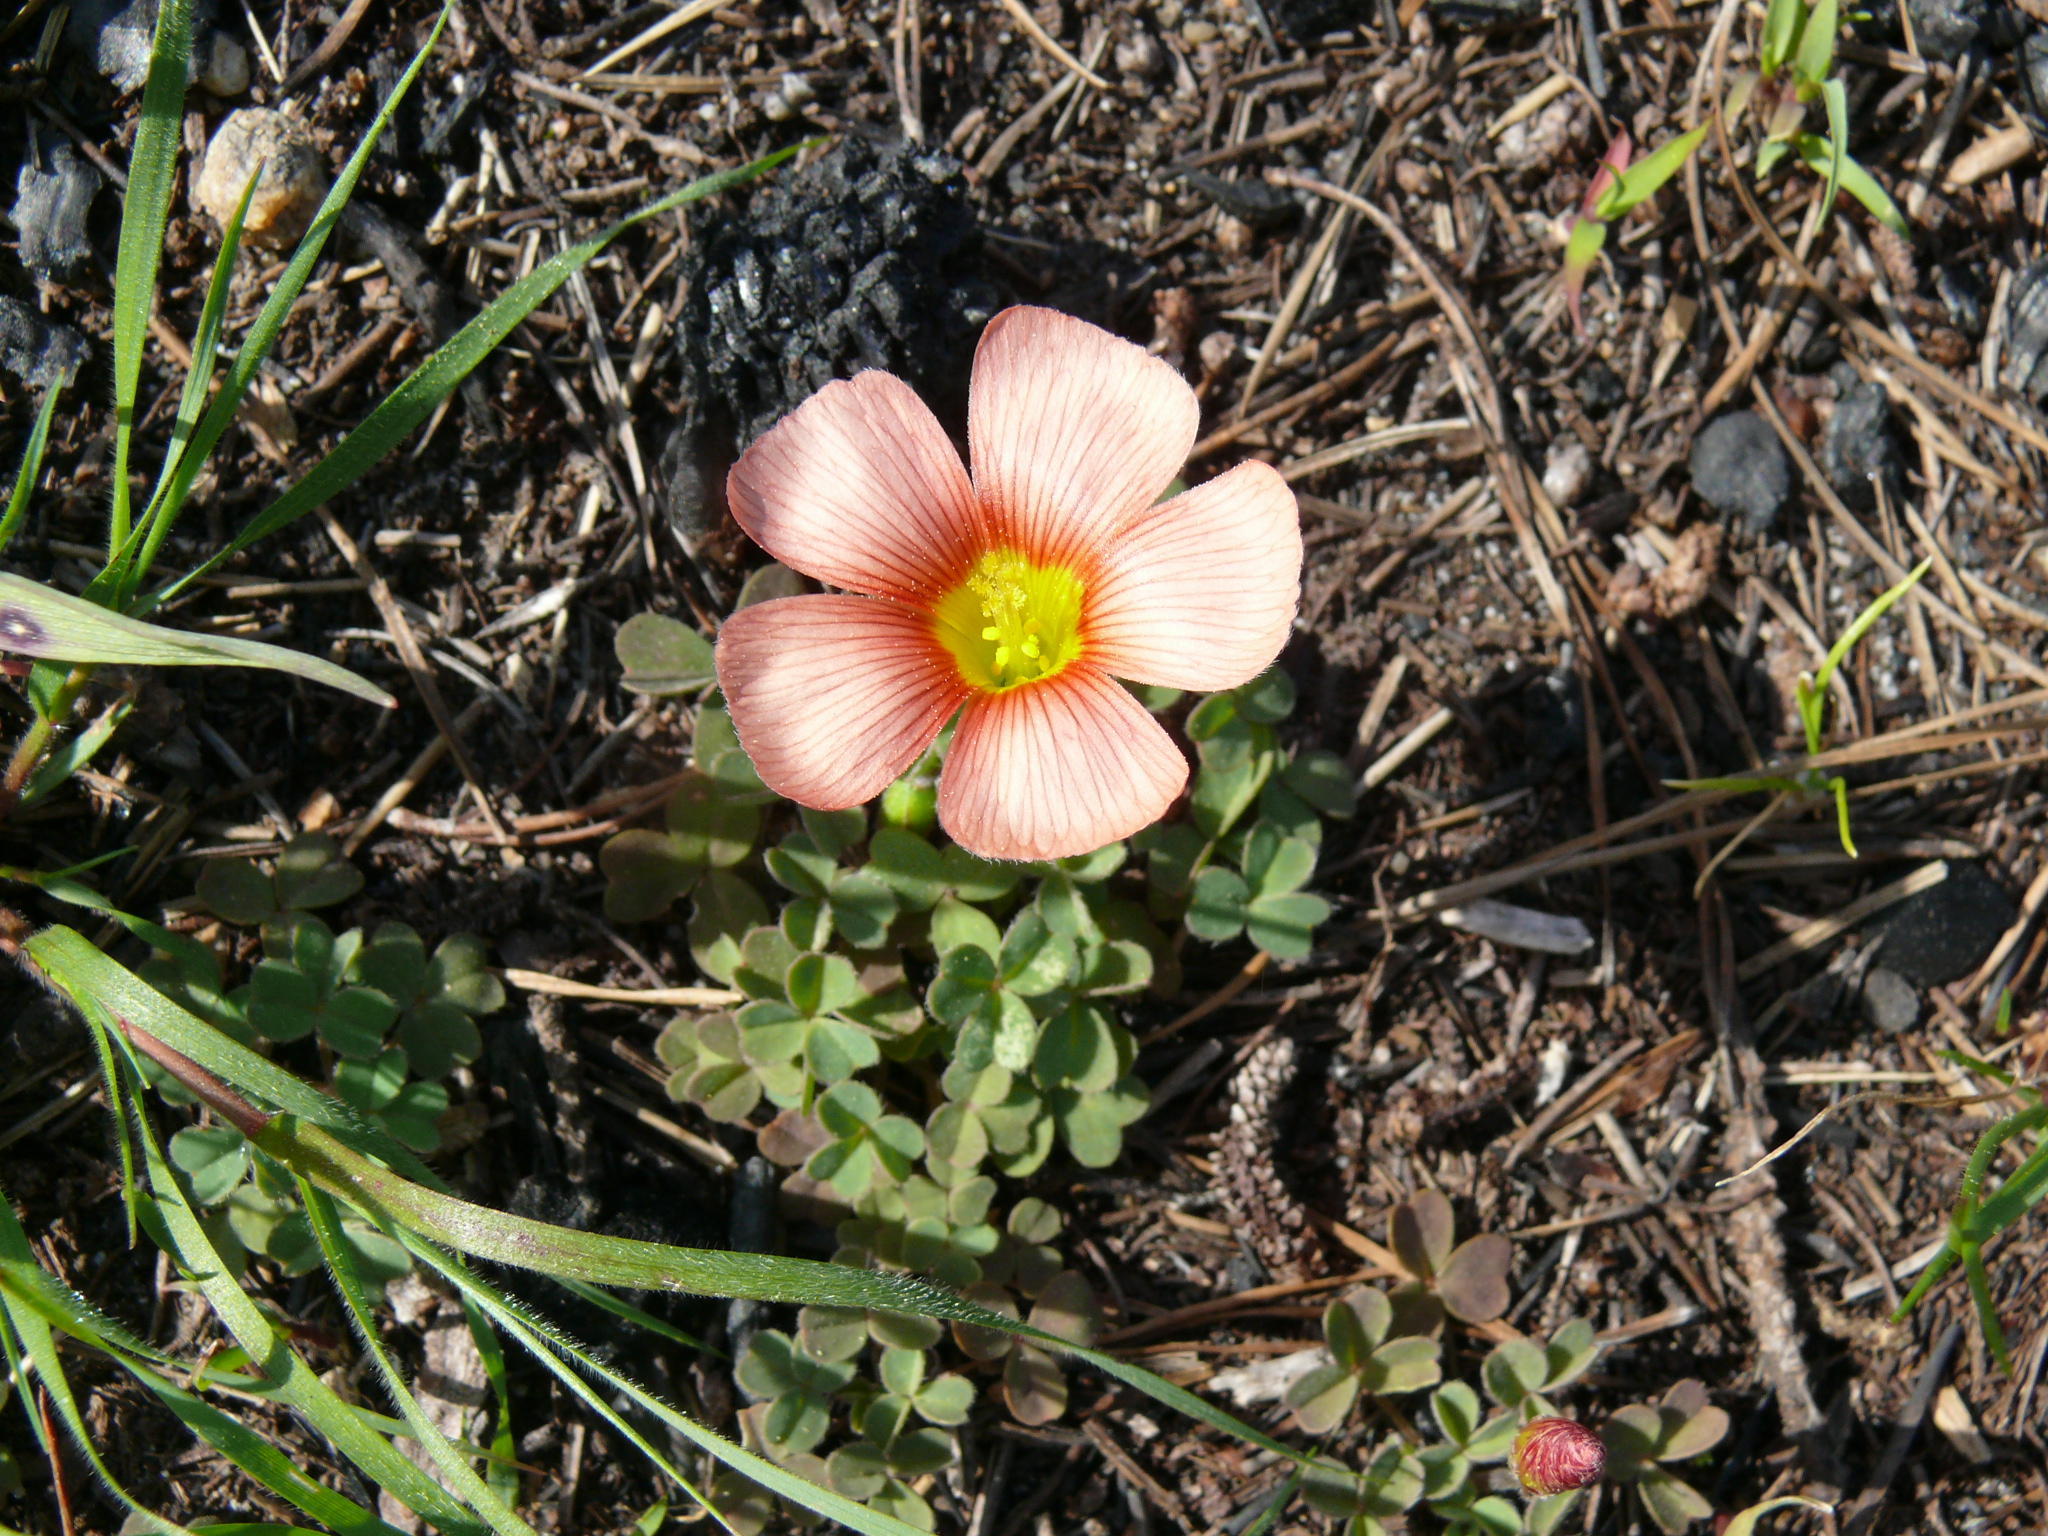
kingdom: Plantae
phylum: Tracheophyta
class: Magnoliopsida
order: Oxalidales
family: Oxalidaceae
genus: Oxalis
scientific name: Oxalis obtusa
